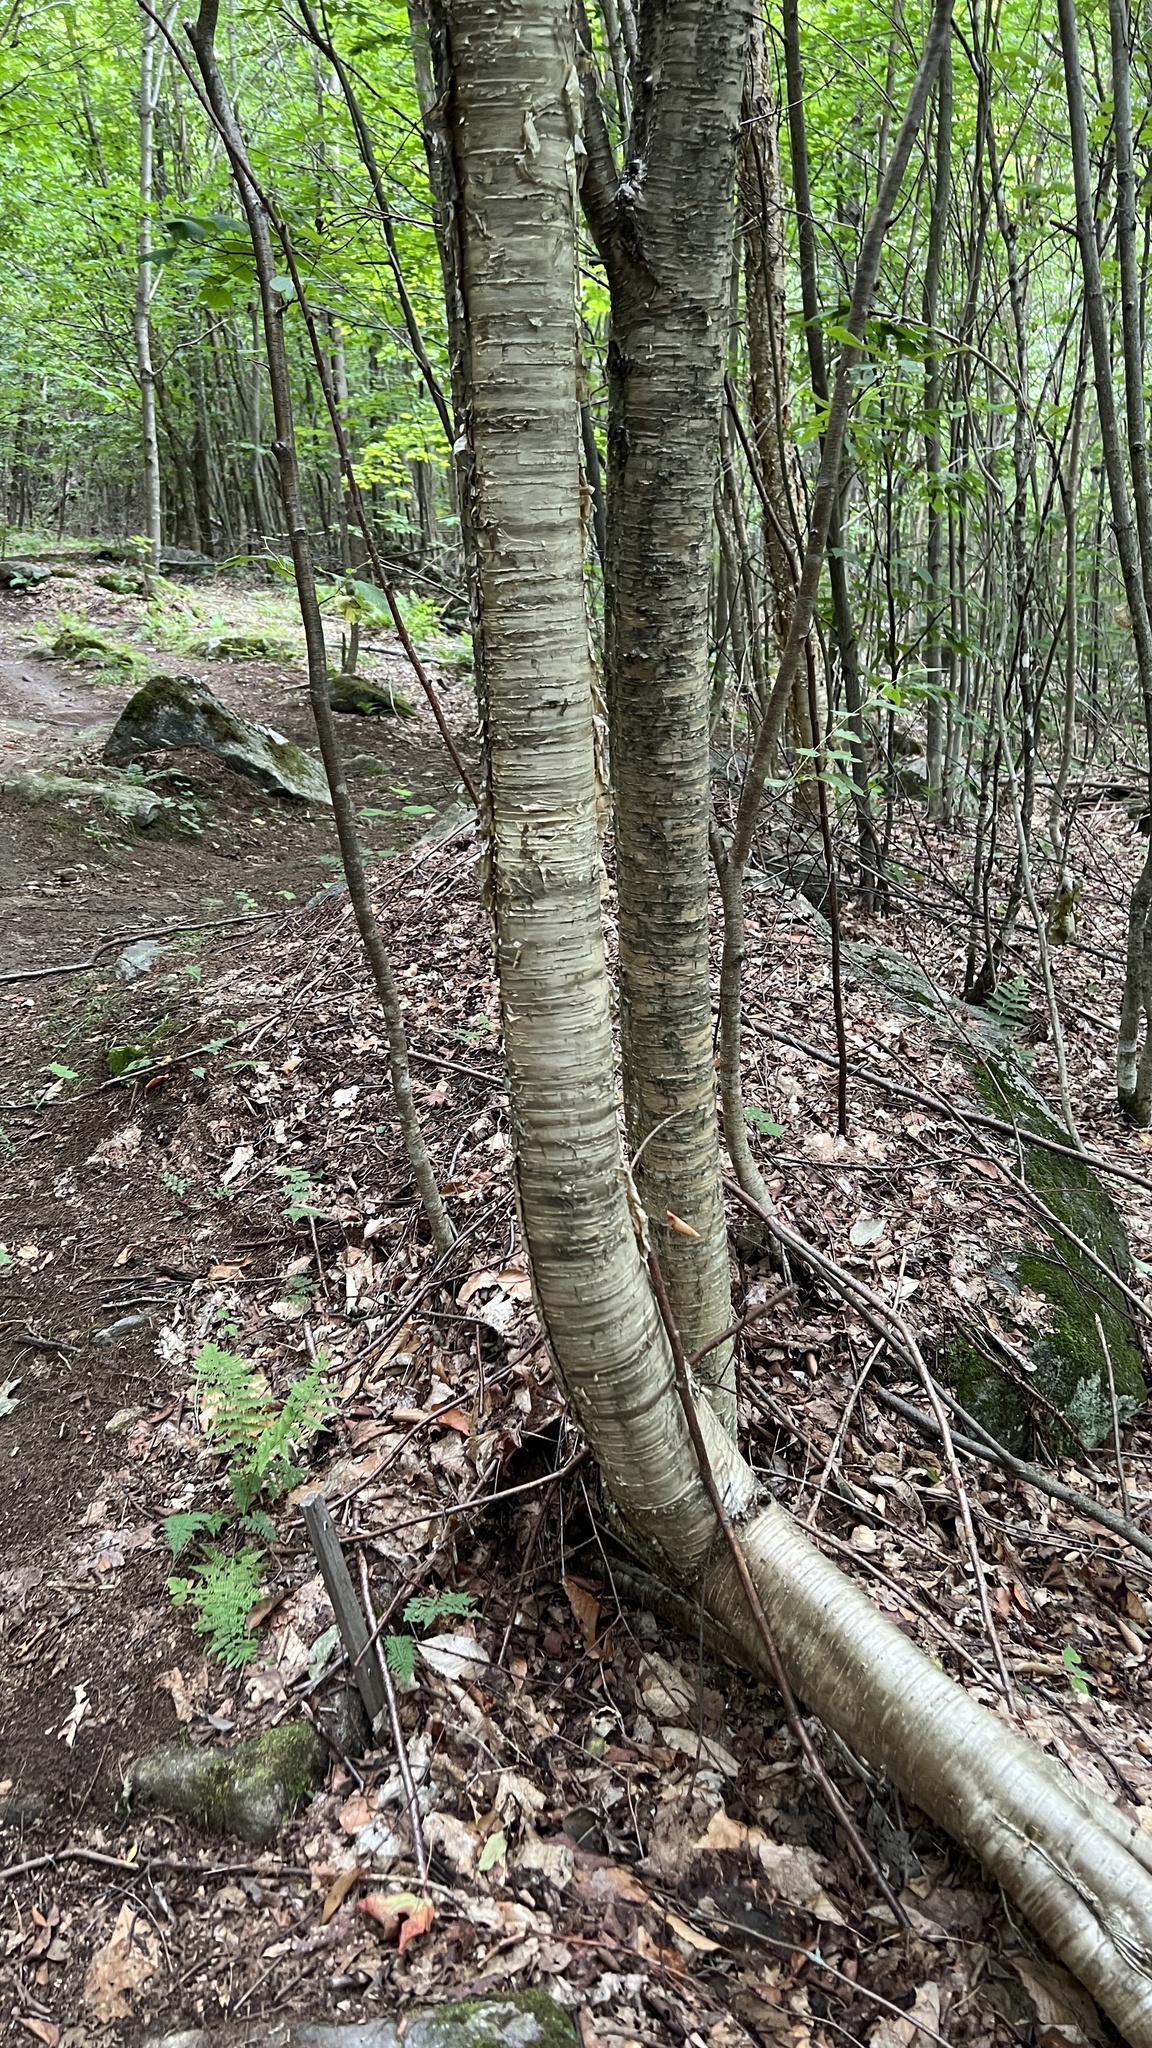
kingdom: Plantae
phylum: Tracheophyta
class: Magnoliopsida
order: Fagales
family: Betulaceae
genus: Betula
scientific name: Betula alleghaniensis
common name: Yellow birch
